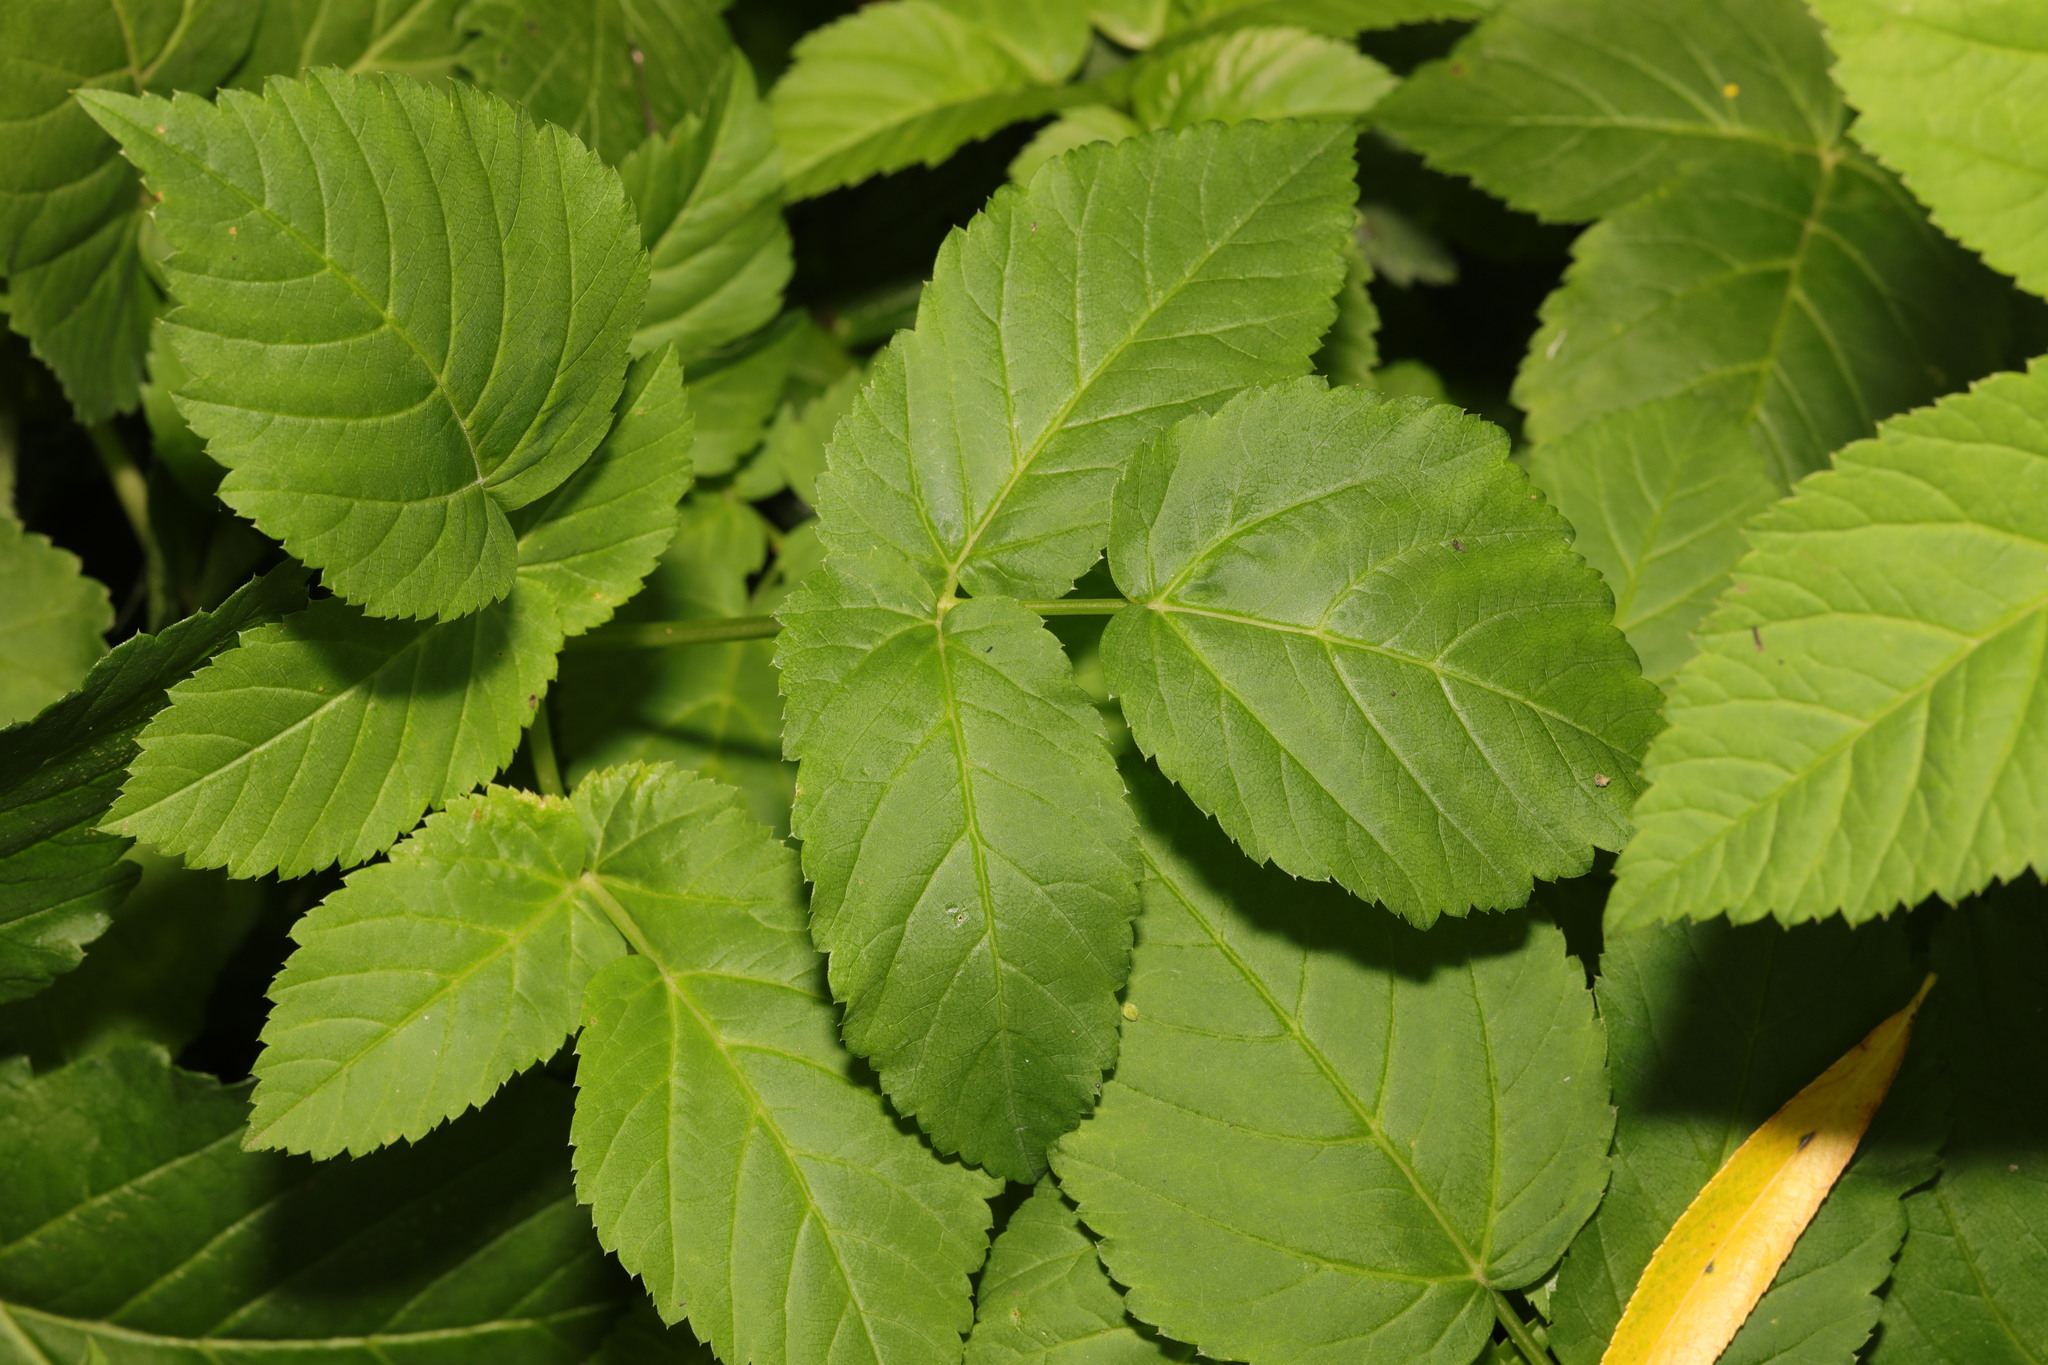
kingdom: Plantae
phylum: Tracheophyta
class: Magnoliopsida
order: Apiales
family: Apiaceae
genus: Aegopodium
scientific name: Aegopodium podagraria
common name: Ground-elder
